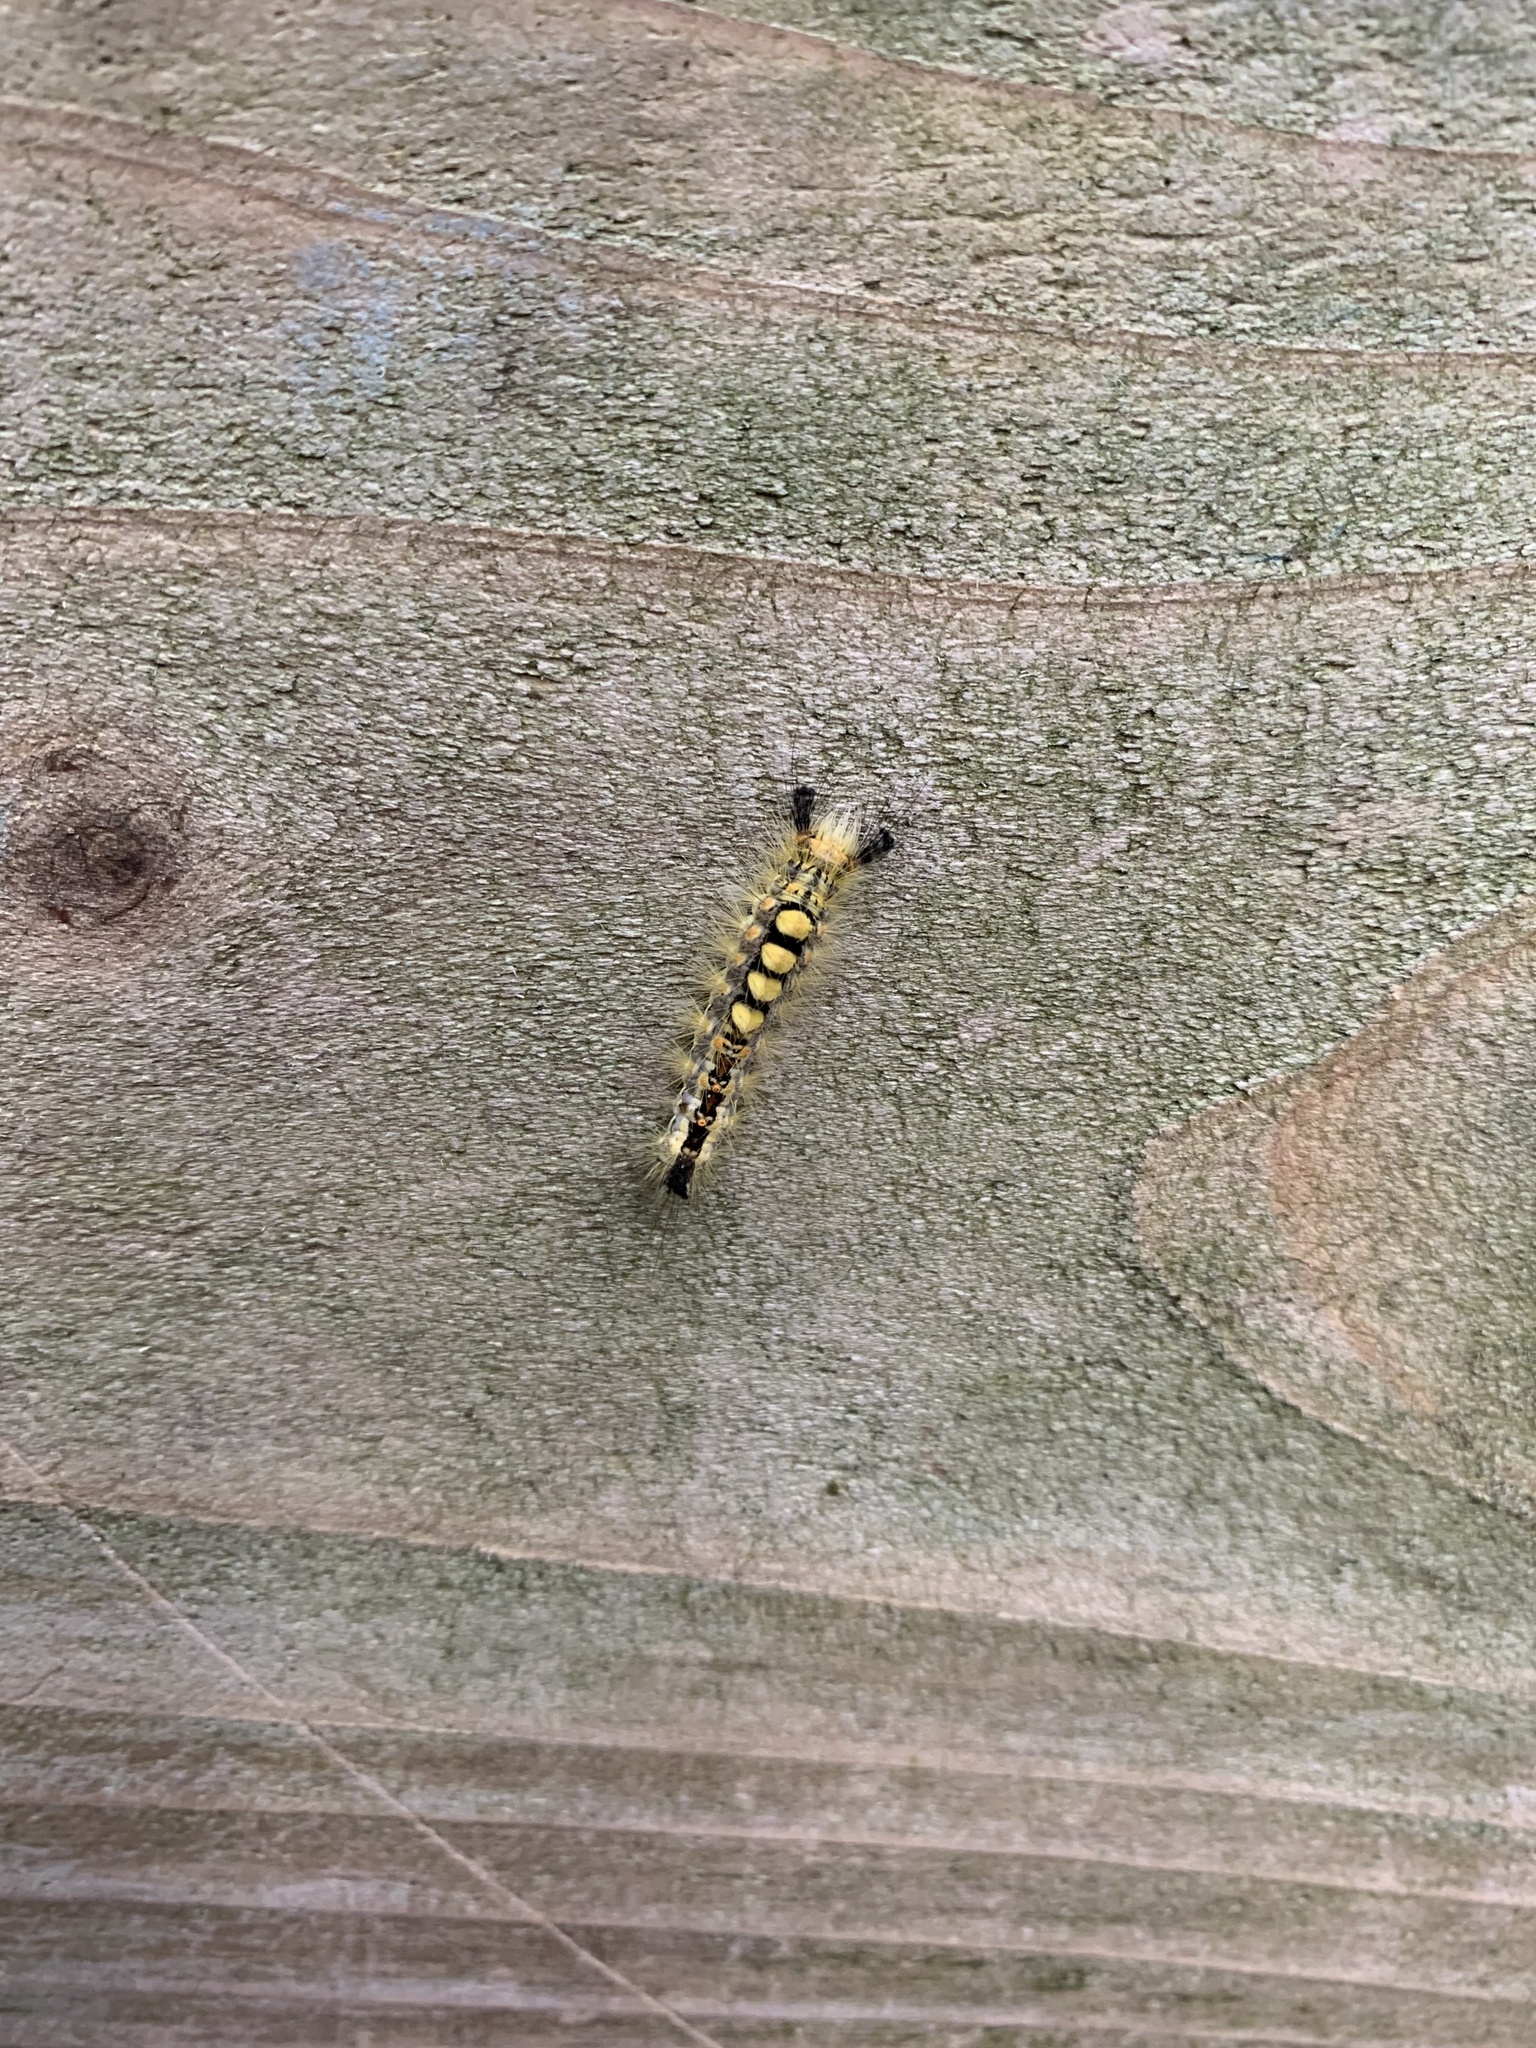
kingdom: Animalia
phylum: Arthropoda
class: Insecta
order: Lepidoptera
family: Erebidae
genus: Orgyia
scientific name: Orgyia antiqua
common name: Vapourer
